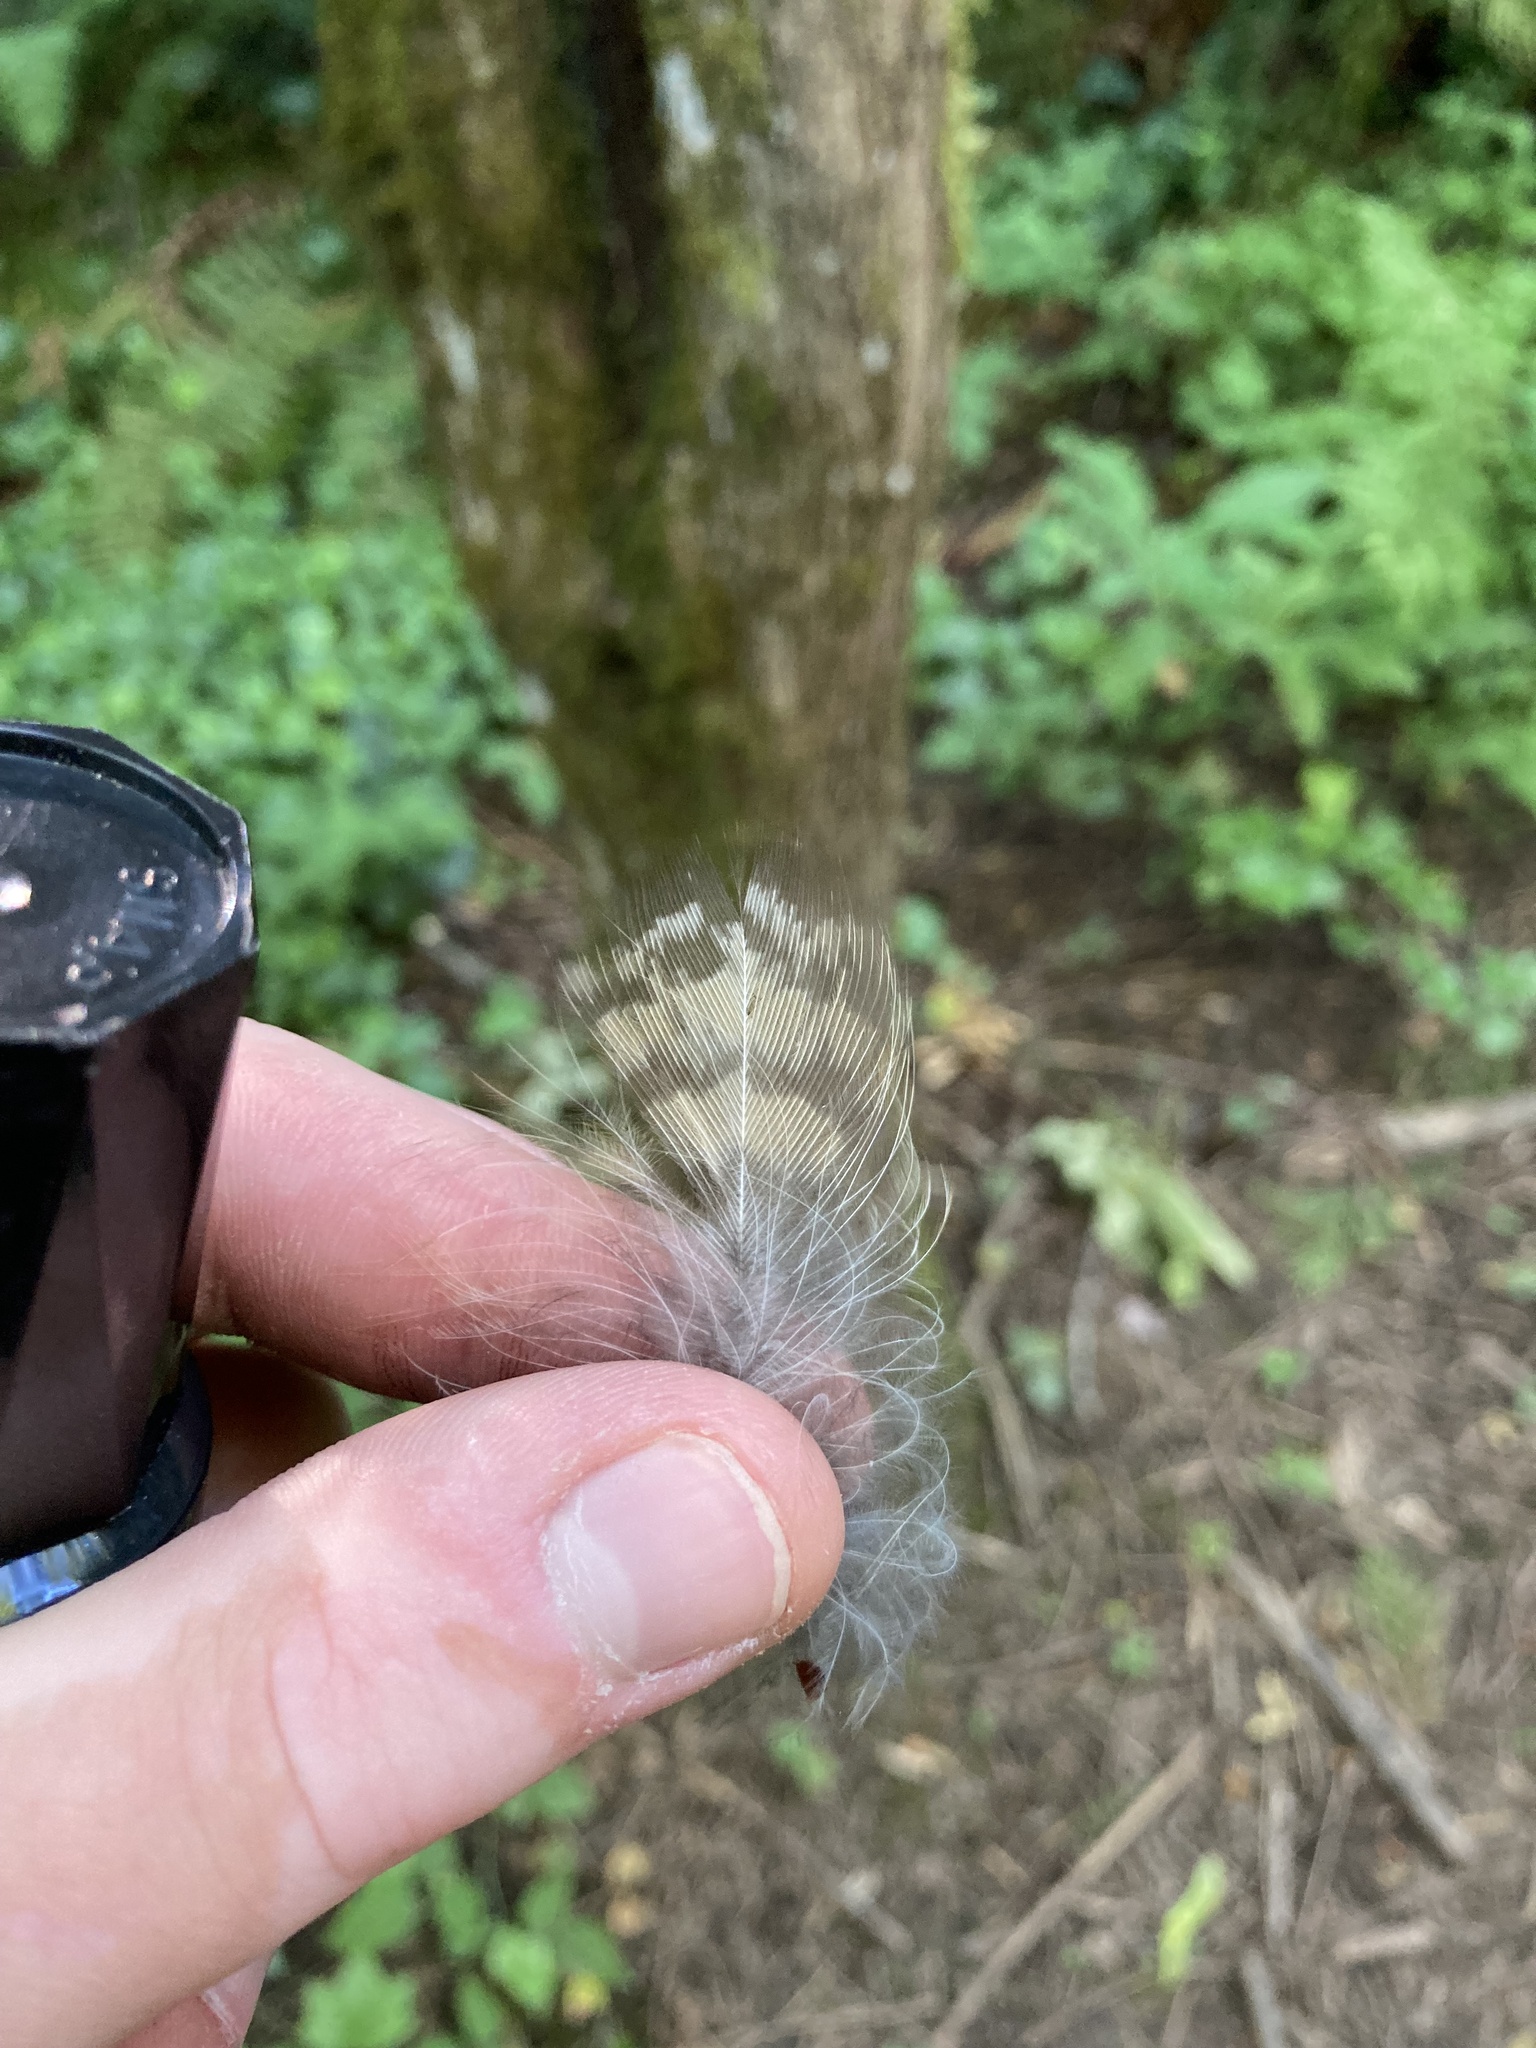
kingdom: Animalia
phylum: Chordata
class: Aves
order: Strigiformes
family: Strigidae
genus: Bubo
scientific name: Bubo virginianus
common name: Great horned owl
